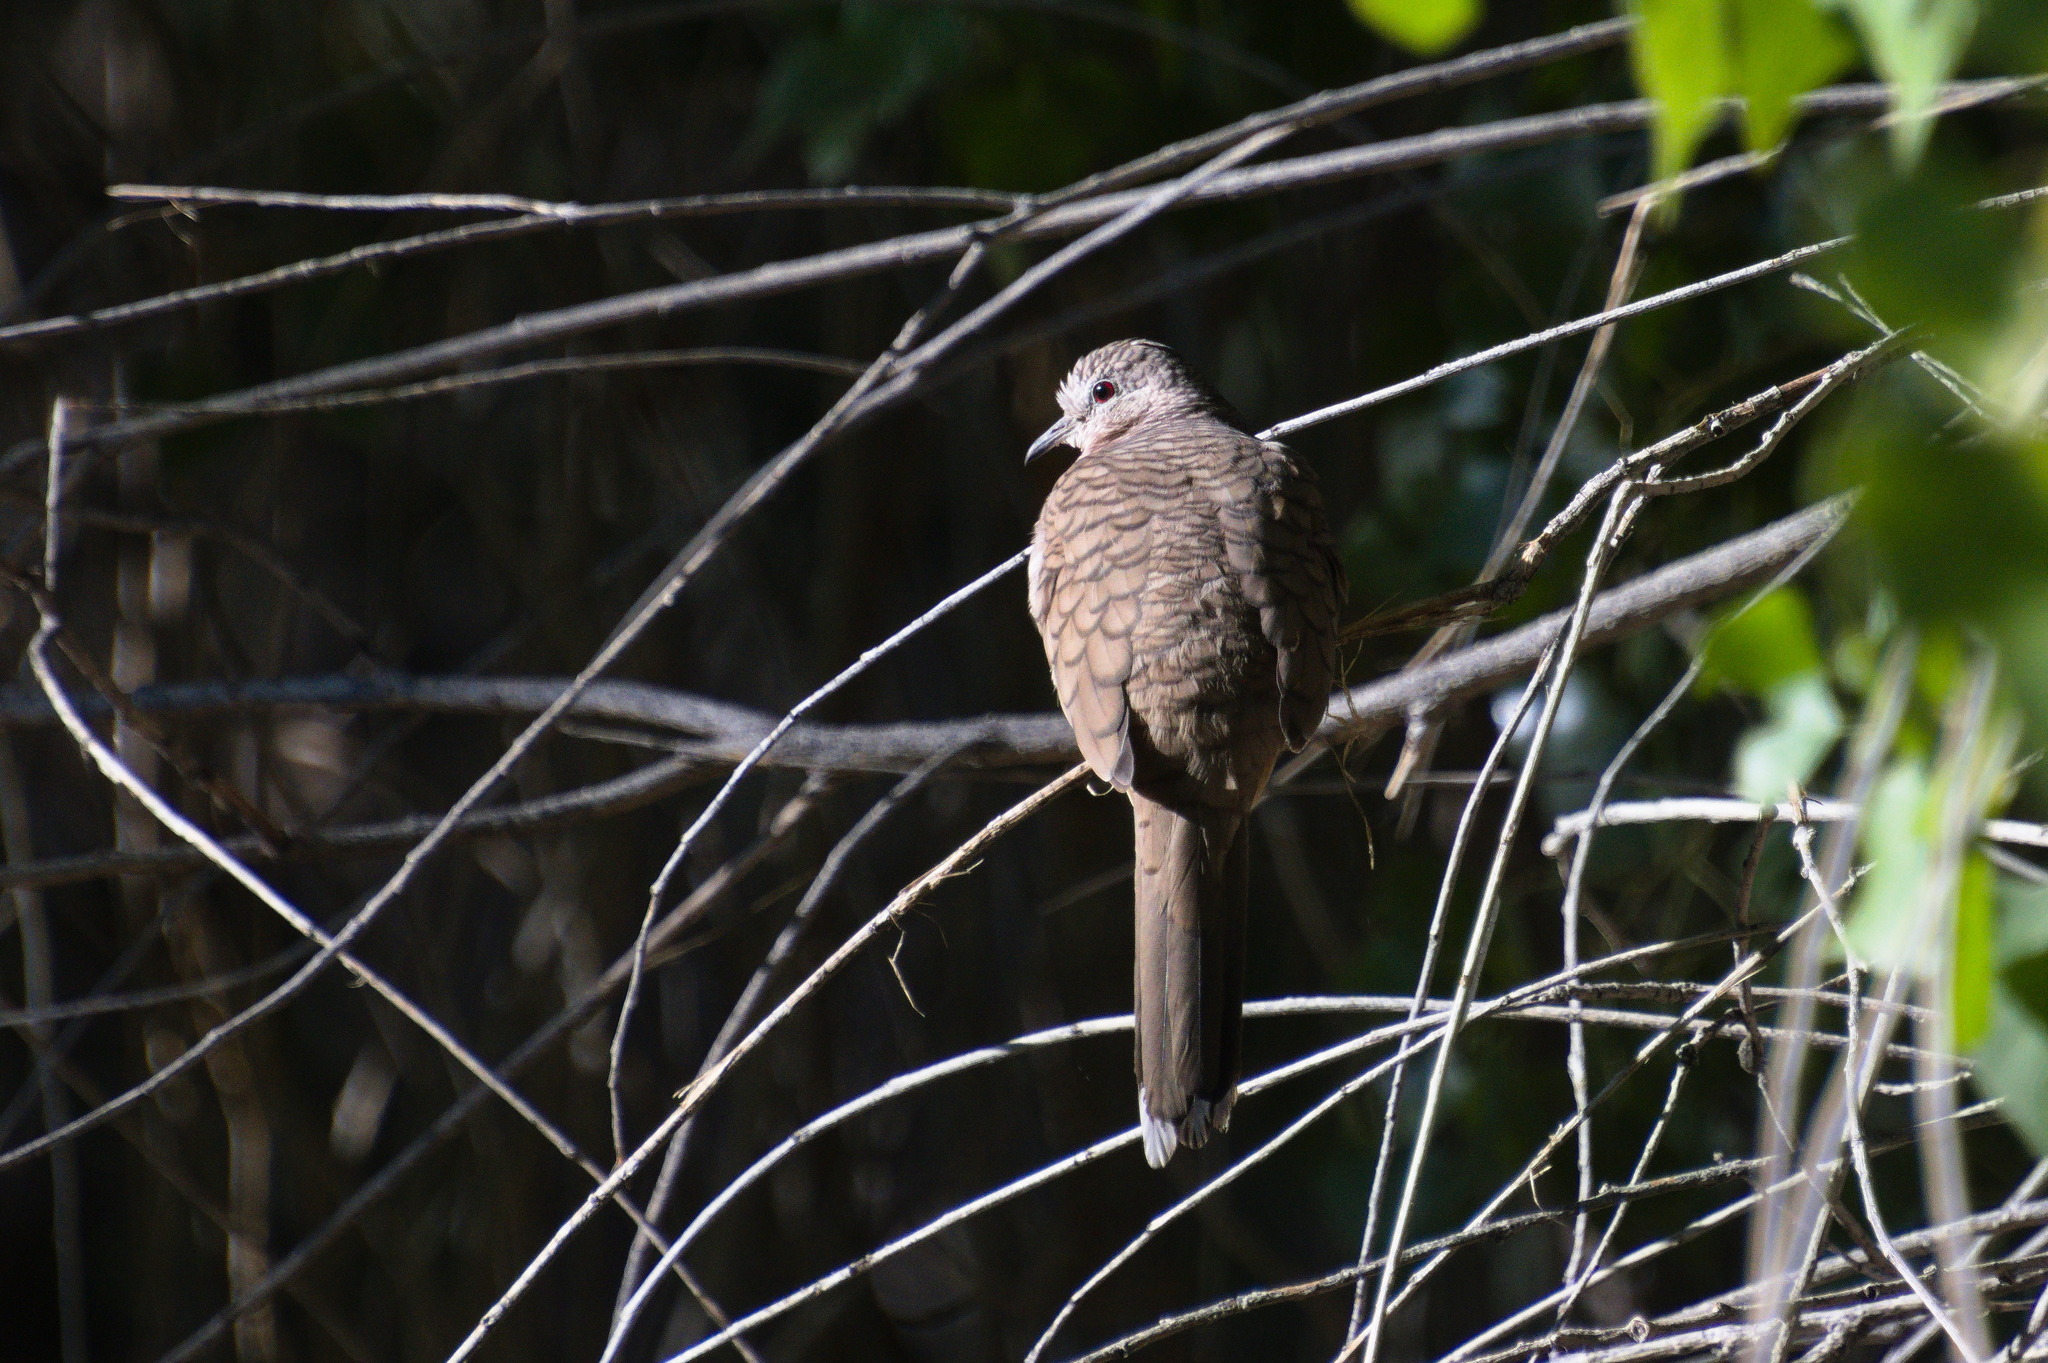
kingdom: Animalia
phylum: Chordata
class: Aves
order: Columbiformes
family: Columbidae
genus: Columbina
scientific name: Columbina inca
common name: Inca dove
